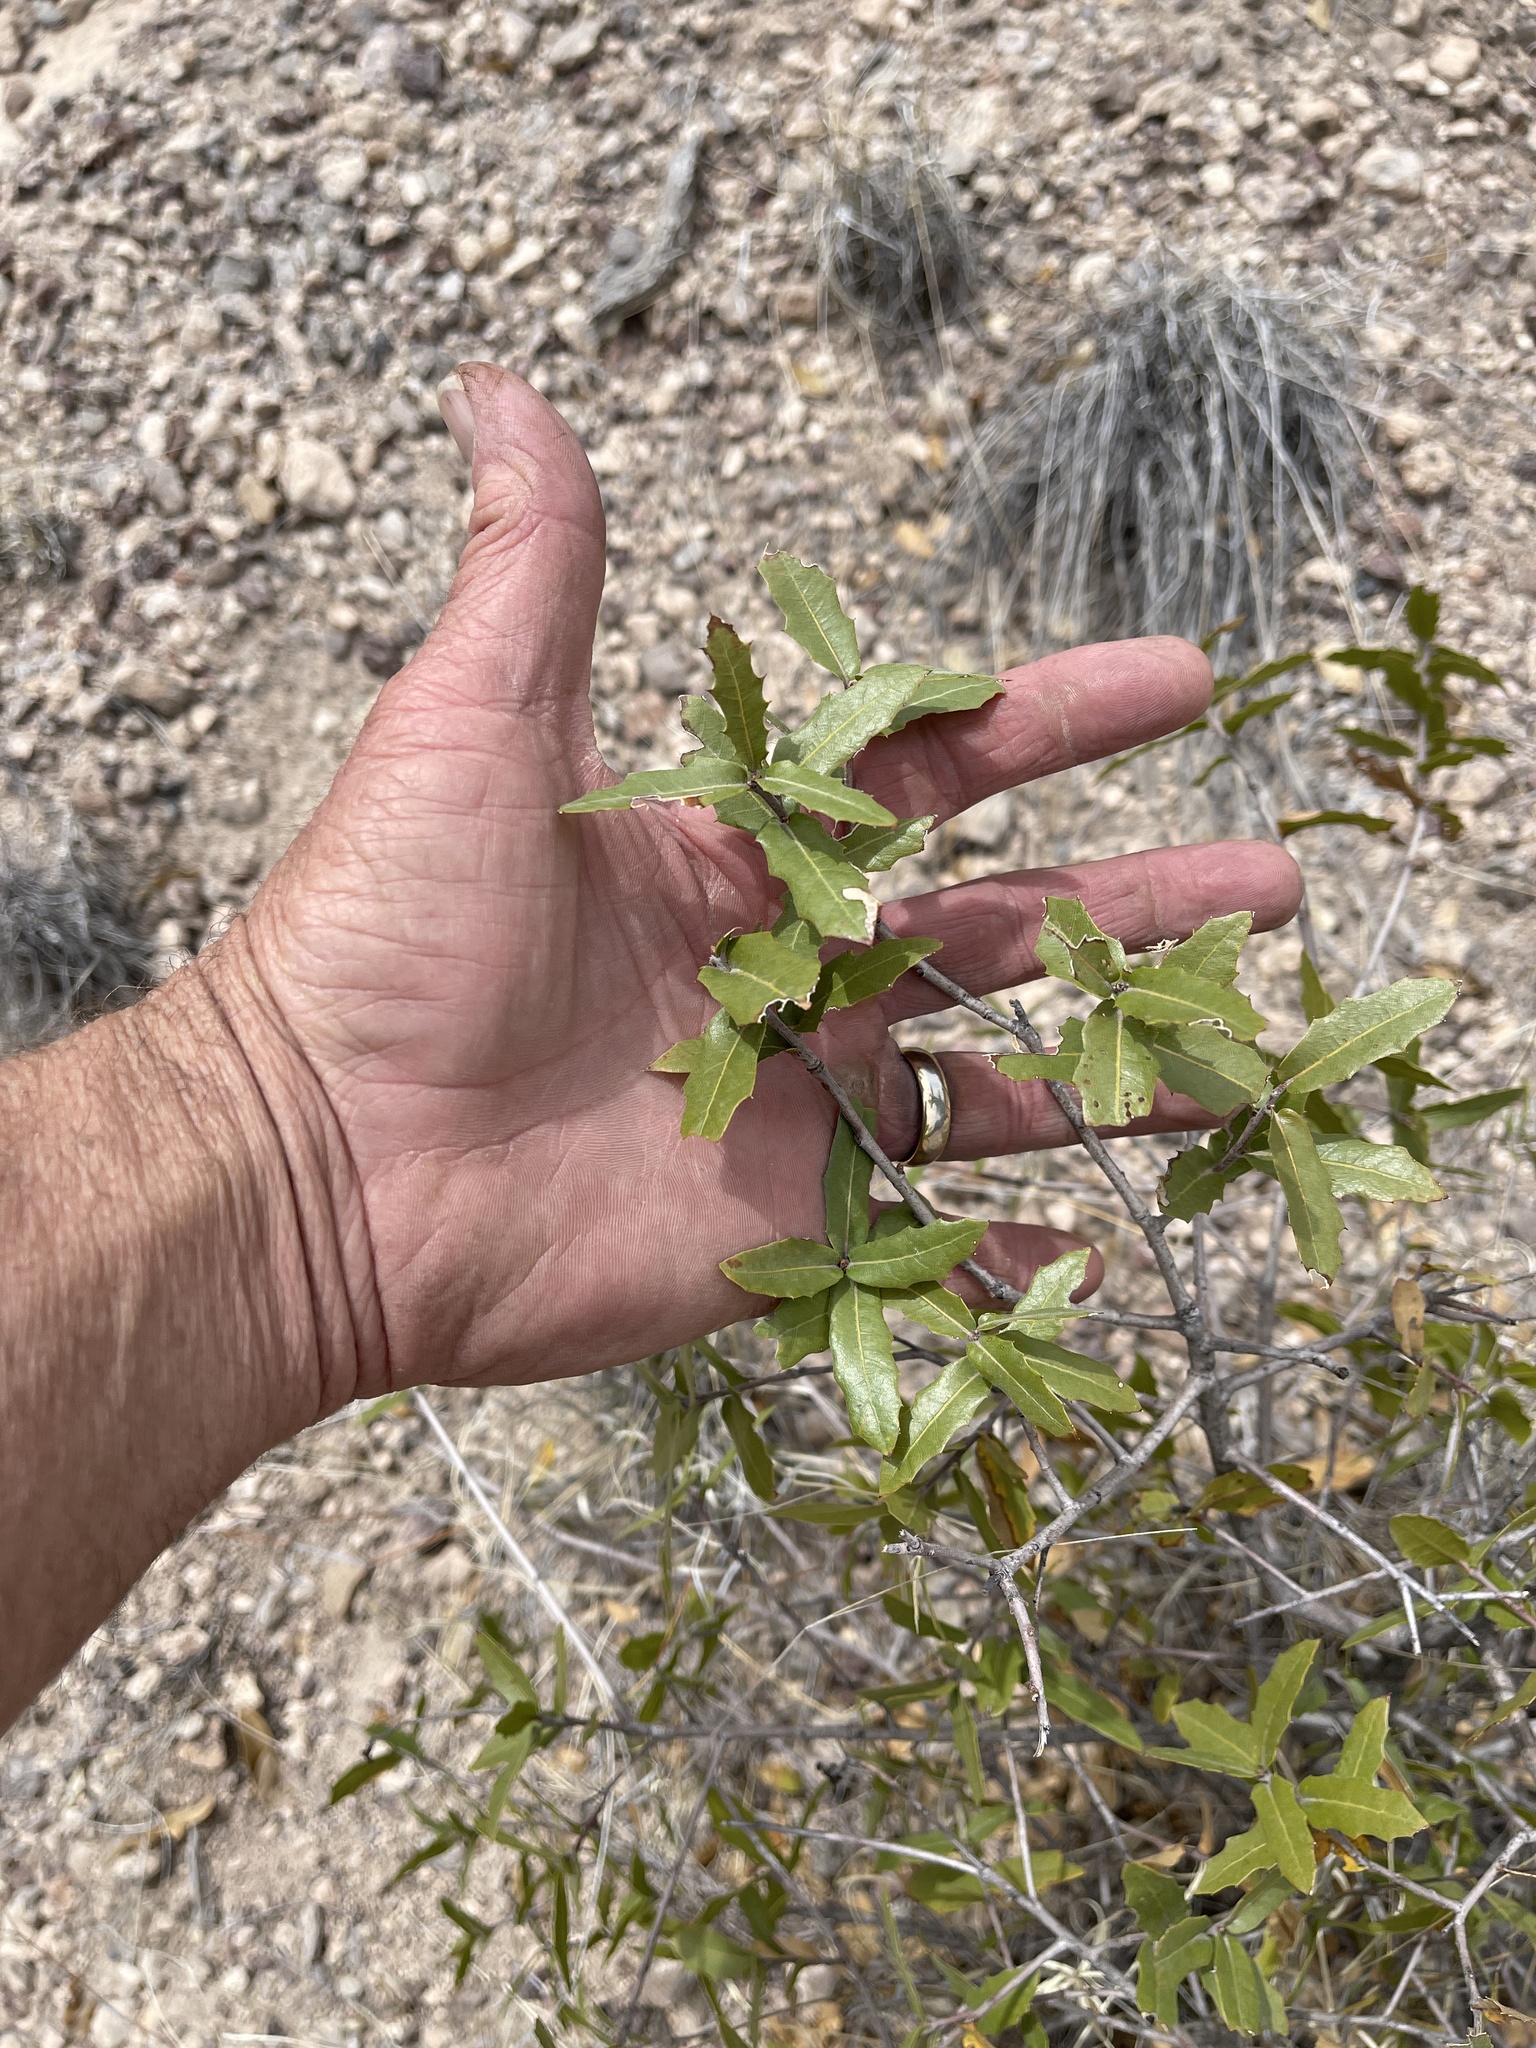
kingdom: Plantae
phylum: Tracheophyta
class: Magnoliopsida
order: Fagales
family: Fagaceae
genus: Quercus
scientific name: Quercus emoryi
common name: Emory oak
